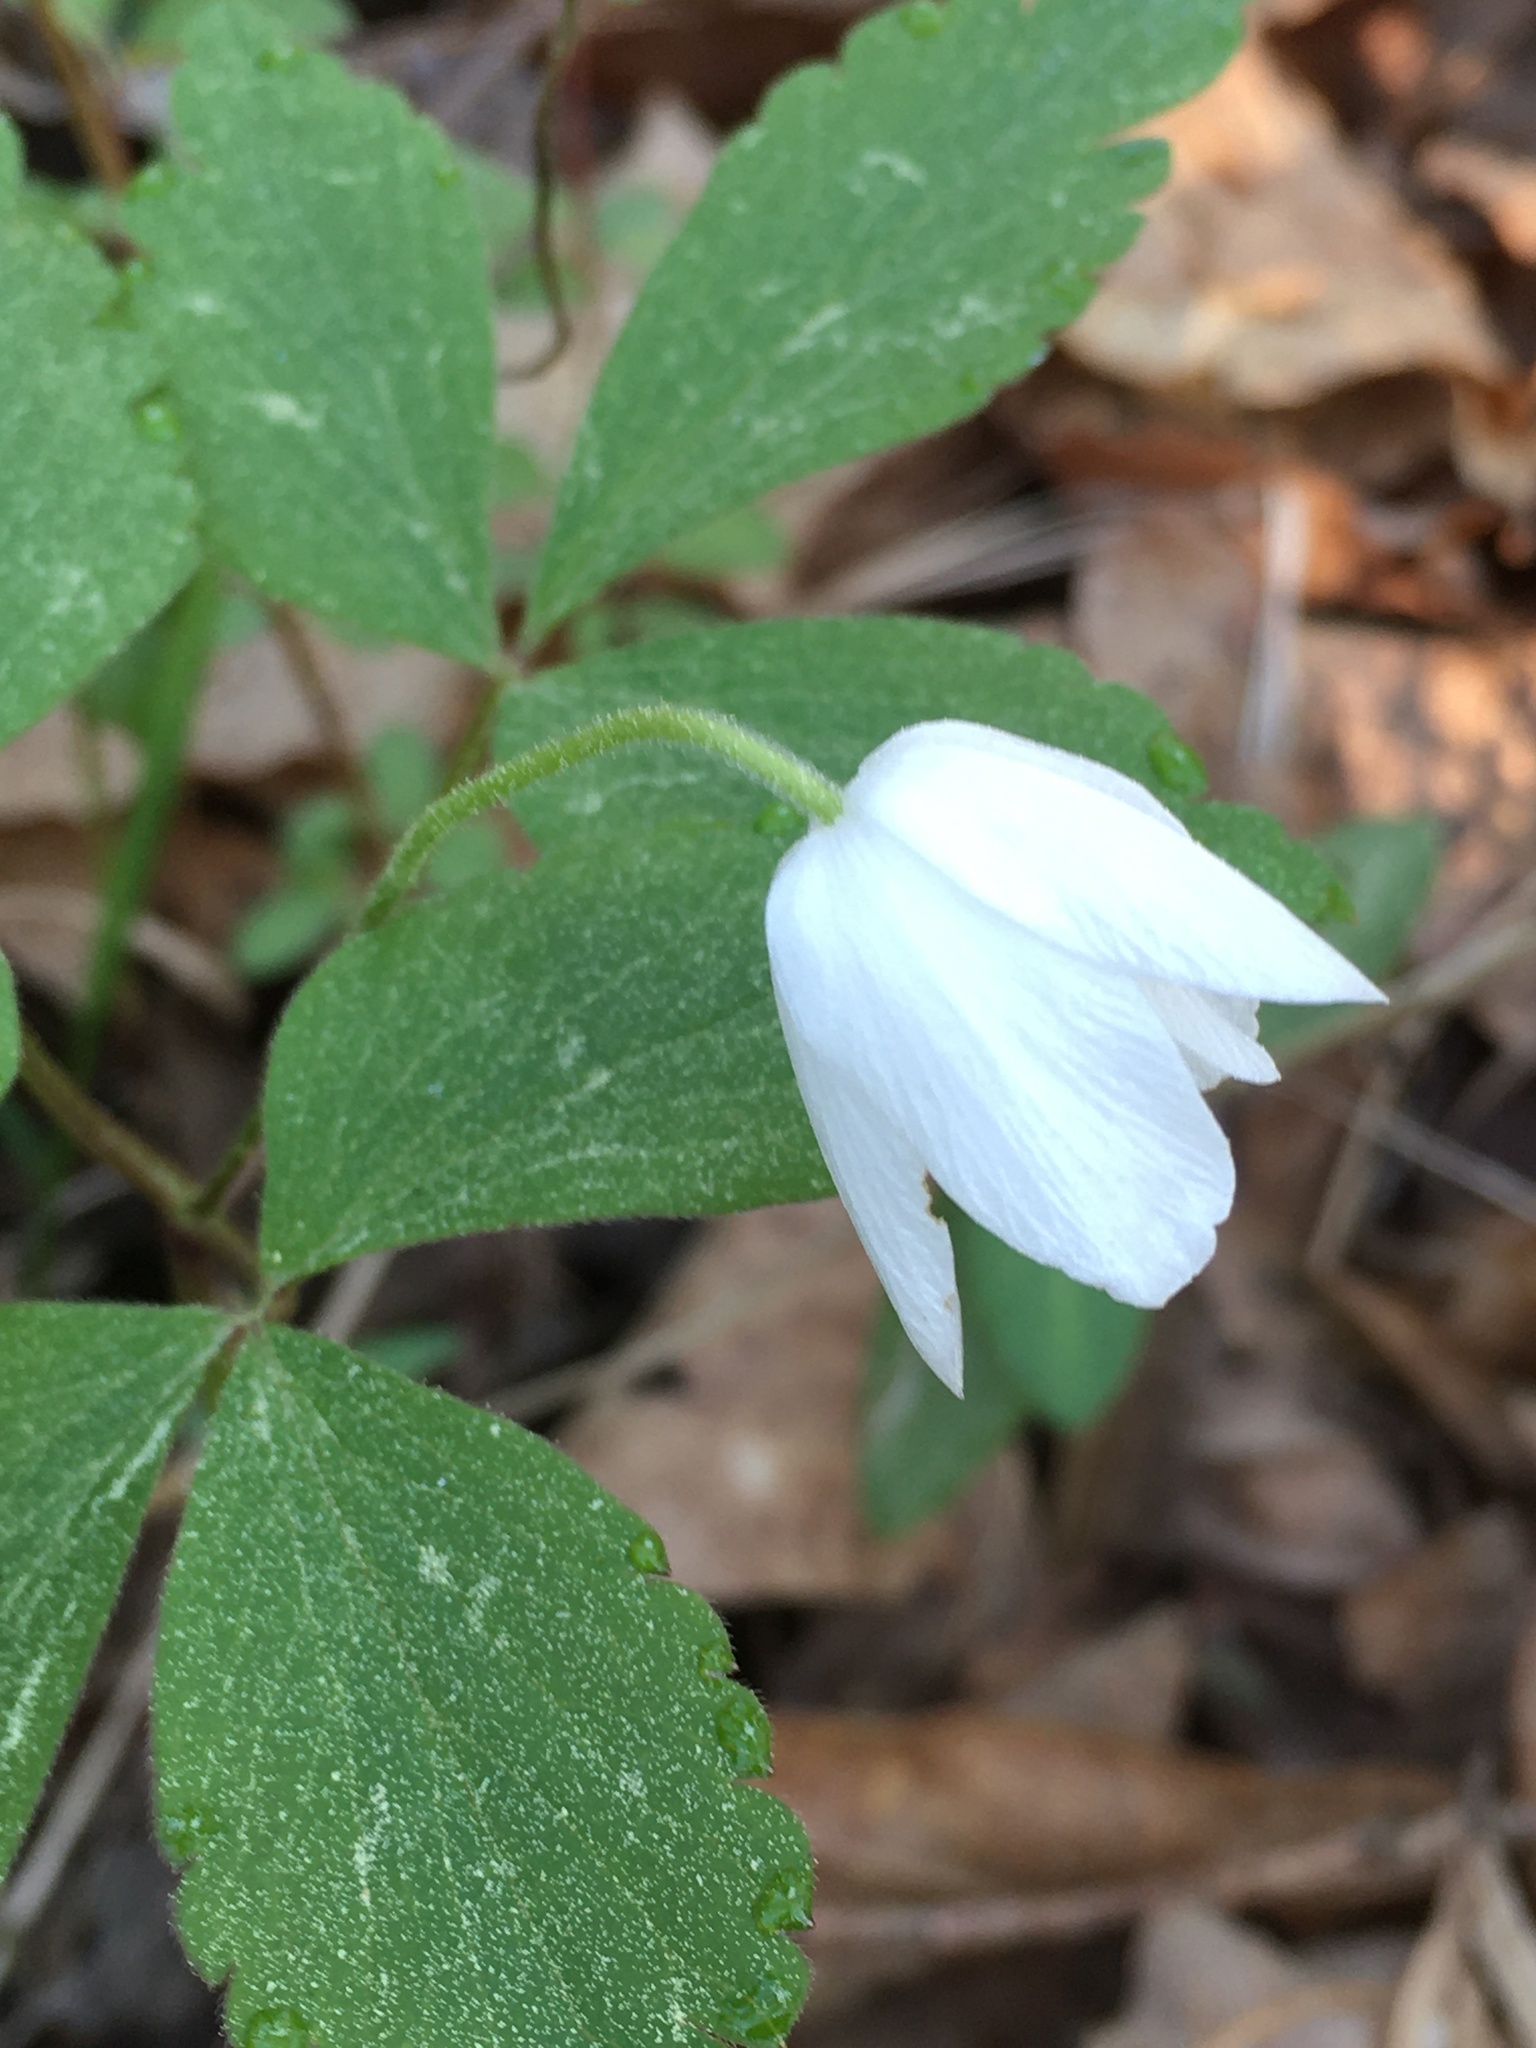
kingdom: Plantae
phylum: Tracheophyta
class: Magnoliopsida
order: Ranunculales
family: Ranunculaceae
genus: Anemone
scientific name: Anemone lancifolia
